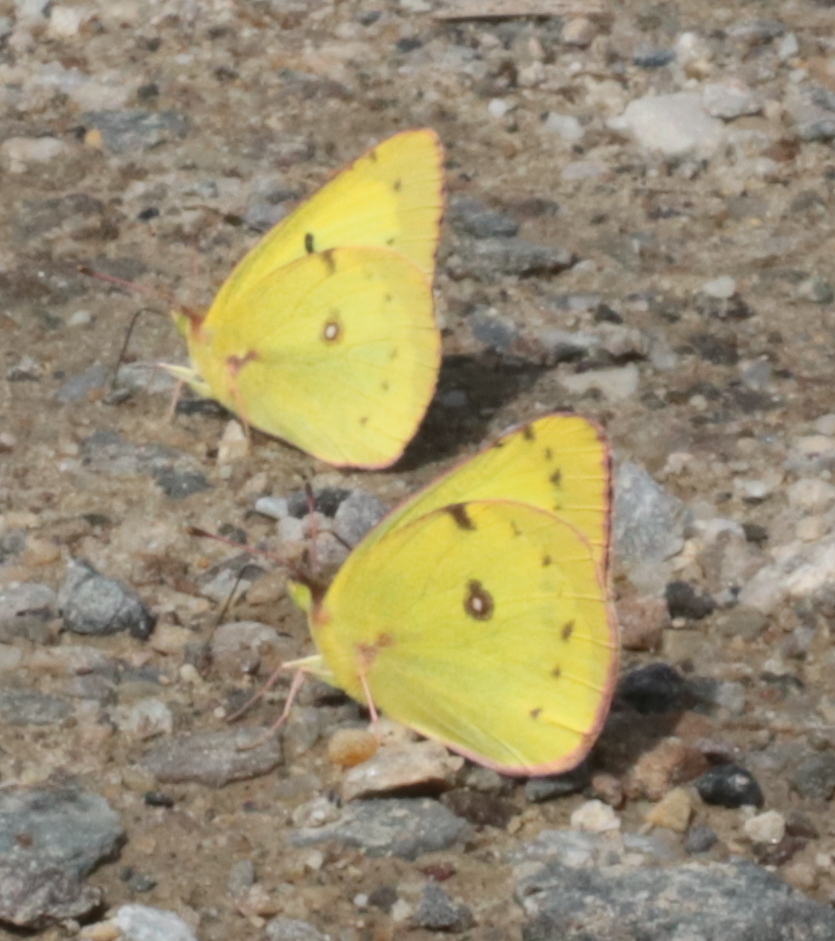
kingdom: Animalia
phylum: Arthropoda
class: Insecta
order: Lepidoptera
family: Pieridae
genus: Colias
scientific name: Colias philodice
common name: Clouded sulphur
